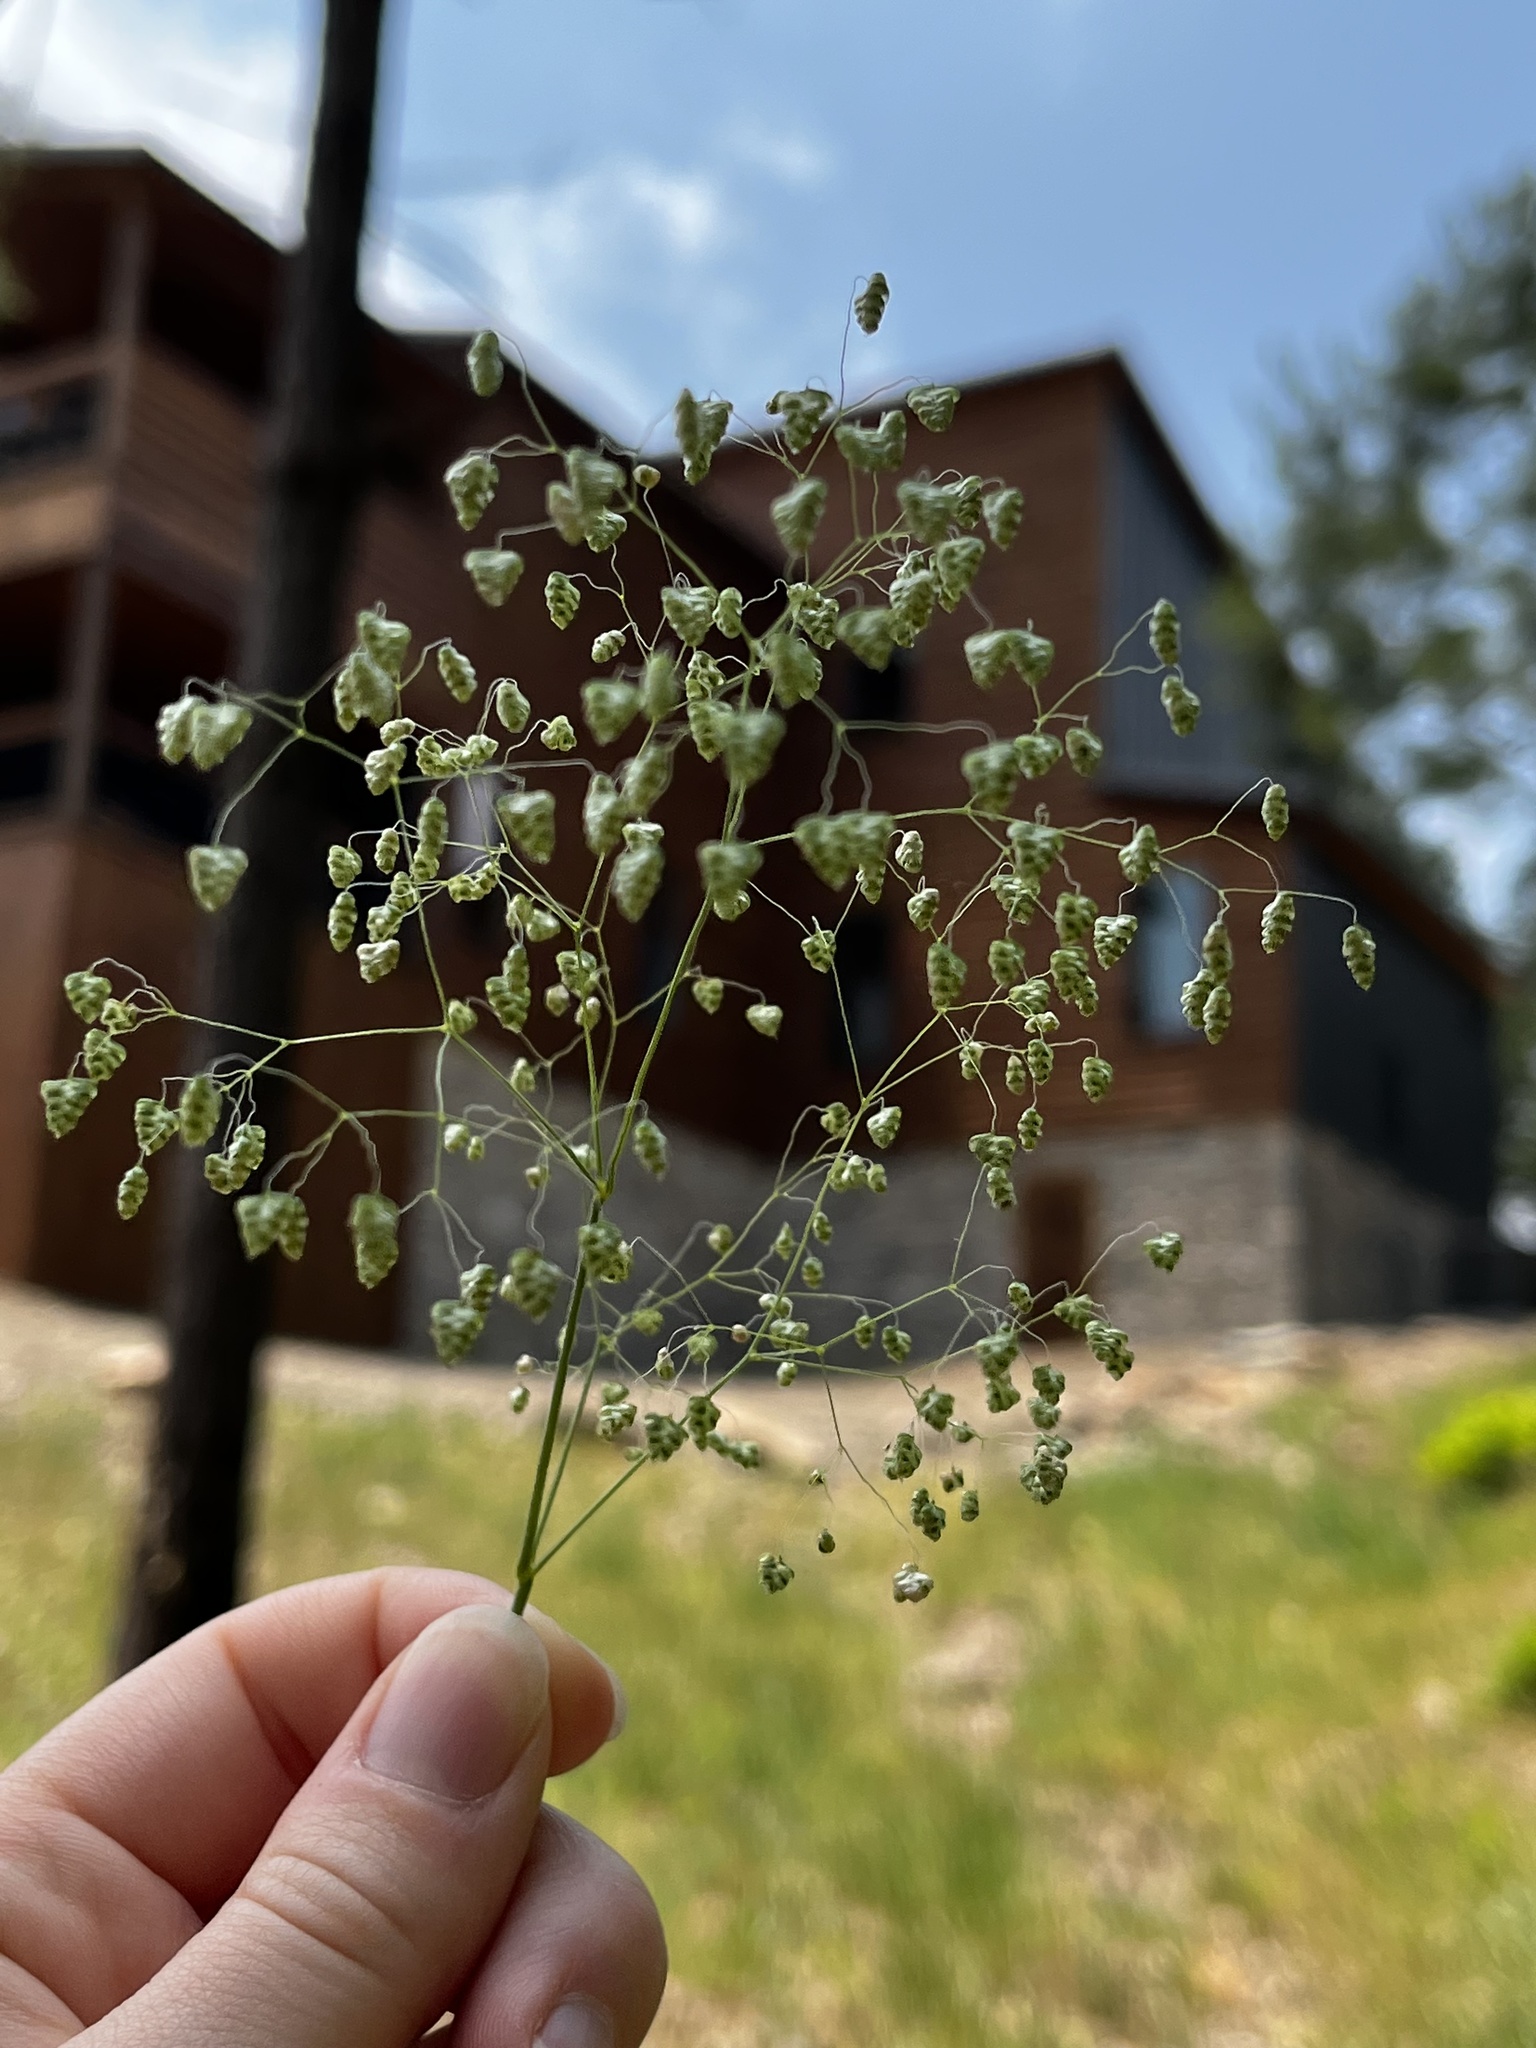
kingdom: Plantae
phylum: Tracheophyta
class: Liliopsida
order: Poales
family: Poaceae
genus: Briza
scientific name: Briza minor
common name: Lesser quaking-grass
